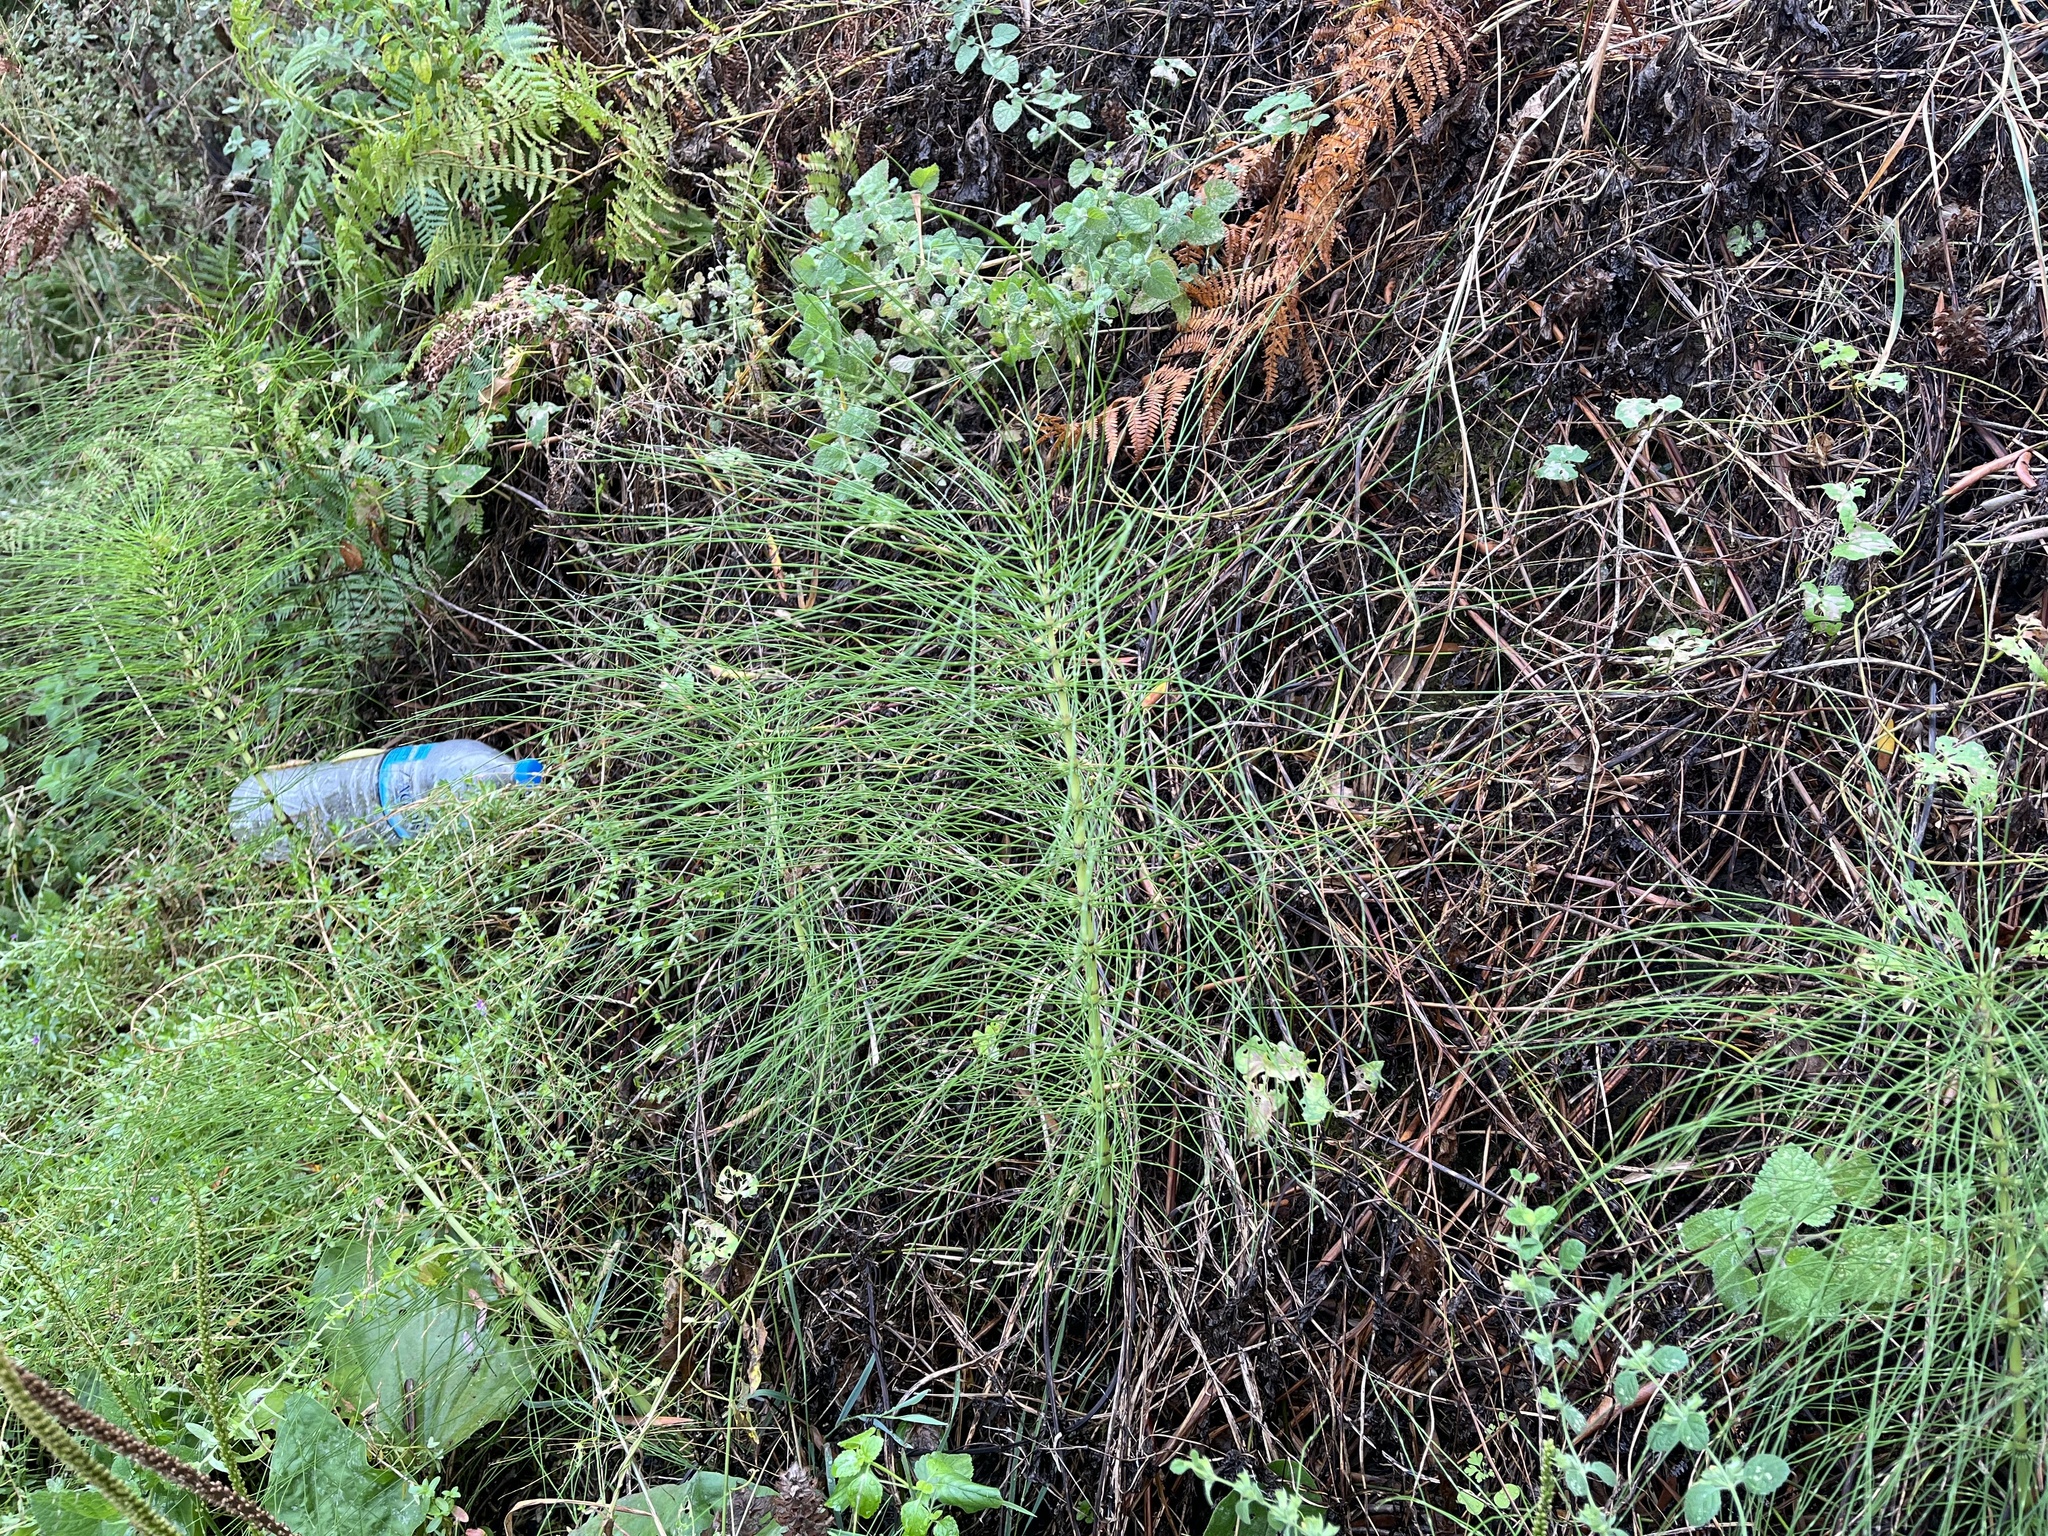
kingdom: Plantae
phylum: Tracheophyta
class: Polypodiopsida
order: Equisetales
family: Equisetaceae
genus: Equisetum
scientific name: Equisetum telmateia
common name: Great horsetail
